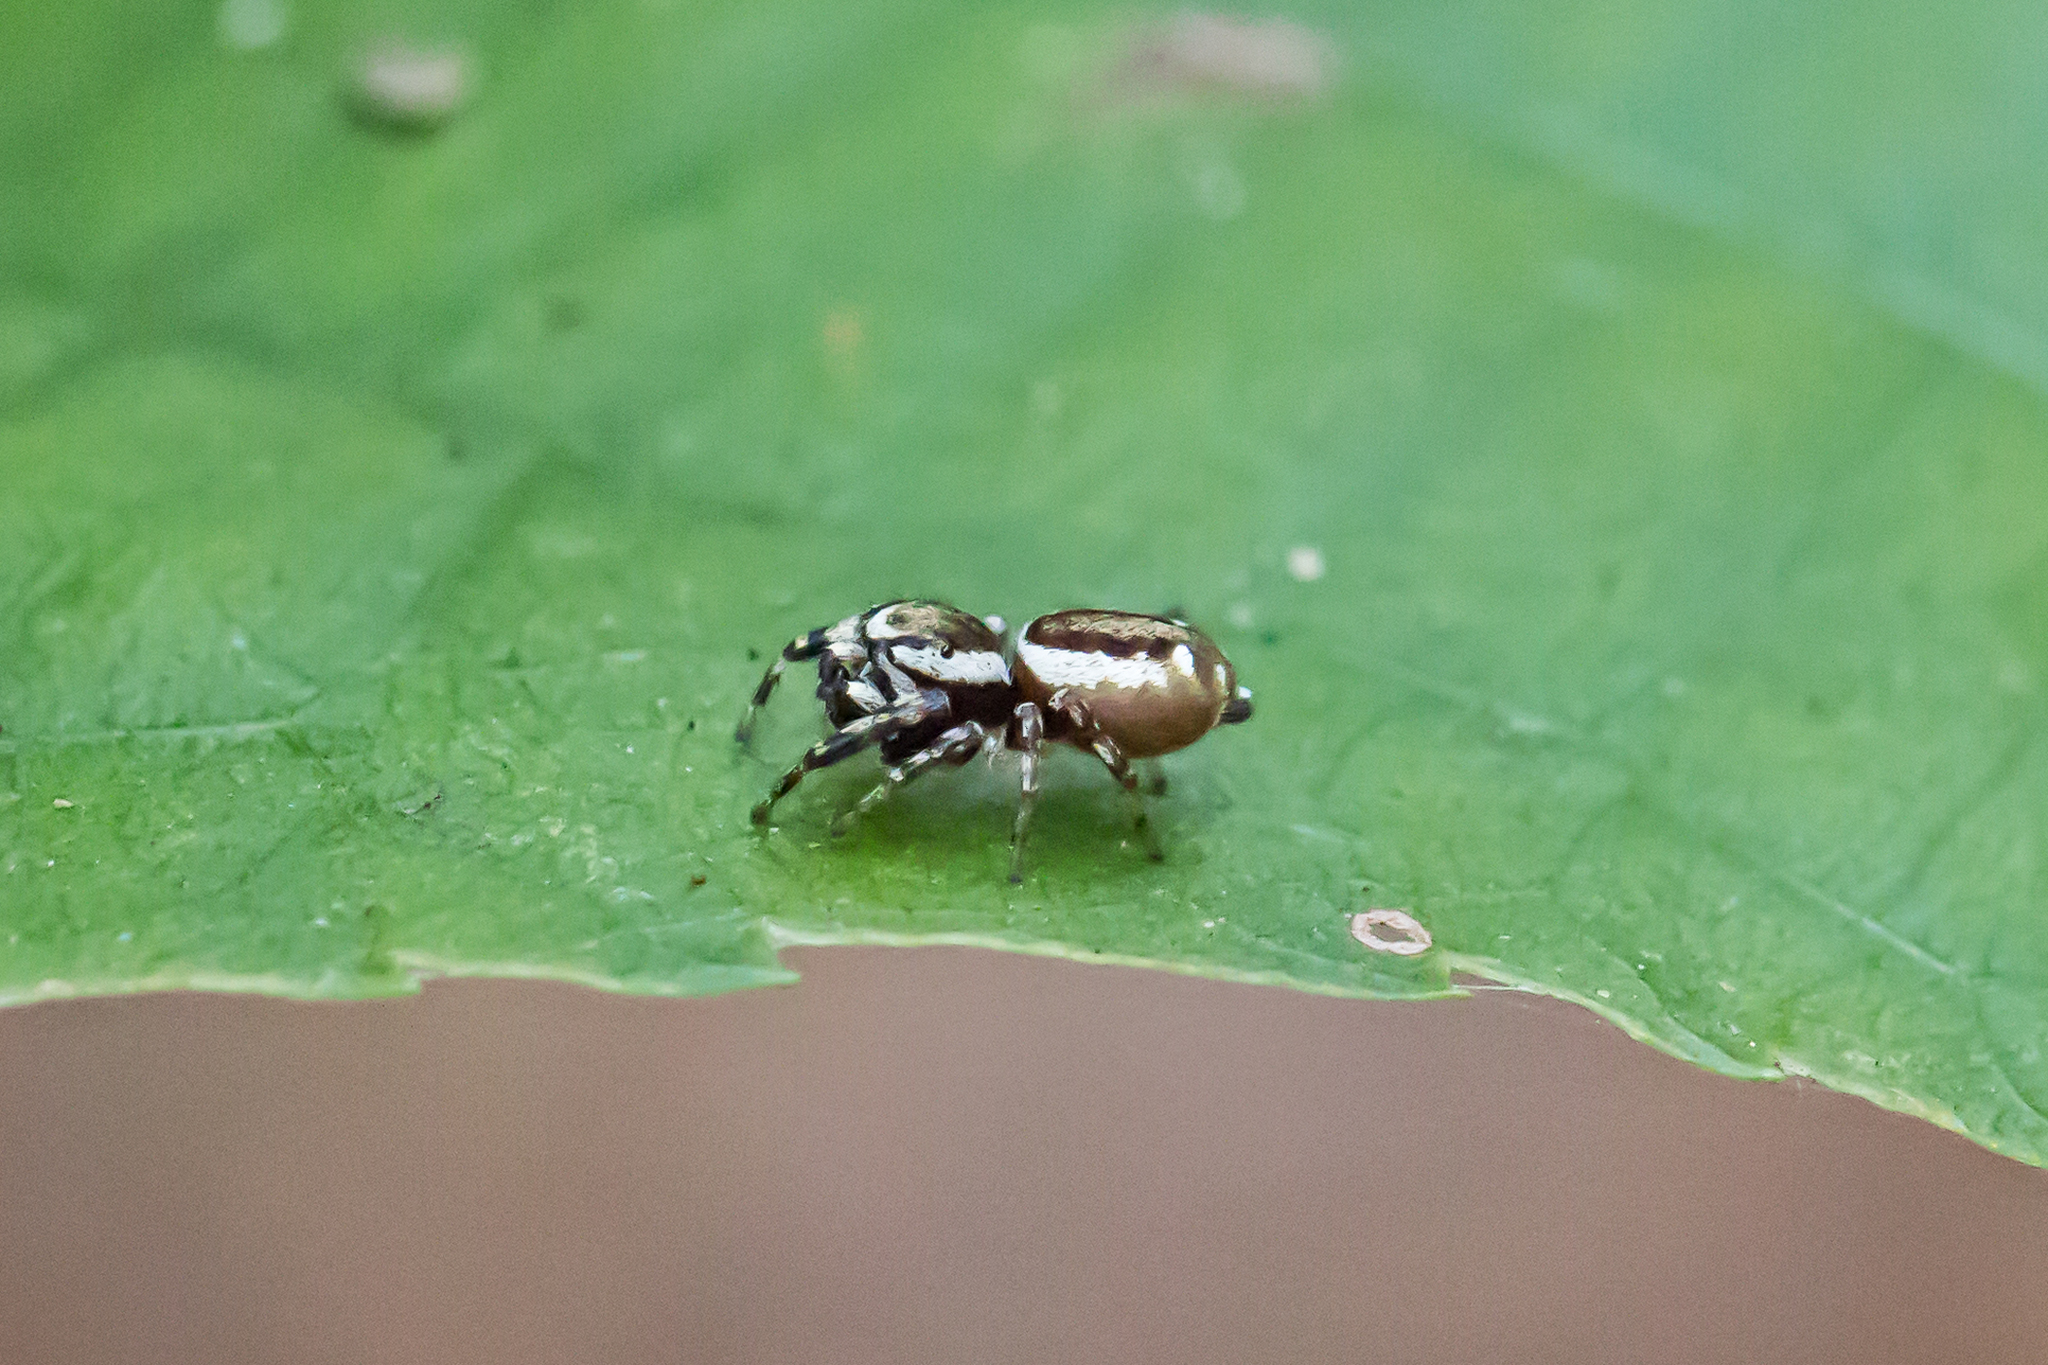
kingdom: Animalia
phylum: Arthropoda
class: Arachnida
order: Araneae
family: Salticidae
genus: Pelegrina
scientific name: Pelegrina proterva
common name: Common white-cheeked jumping spider
